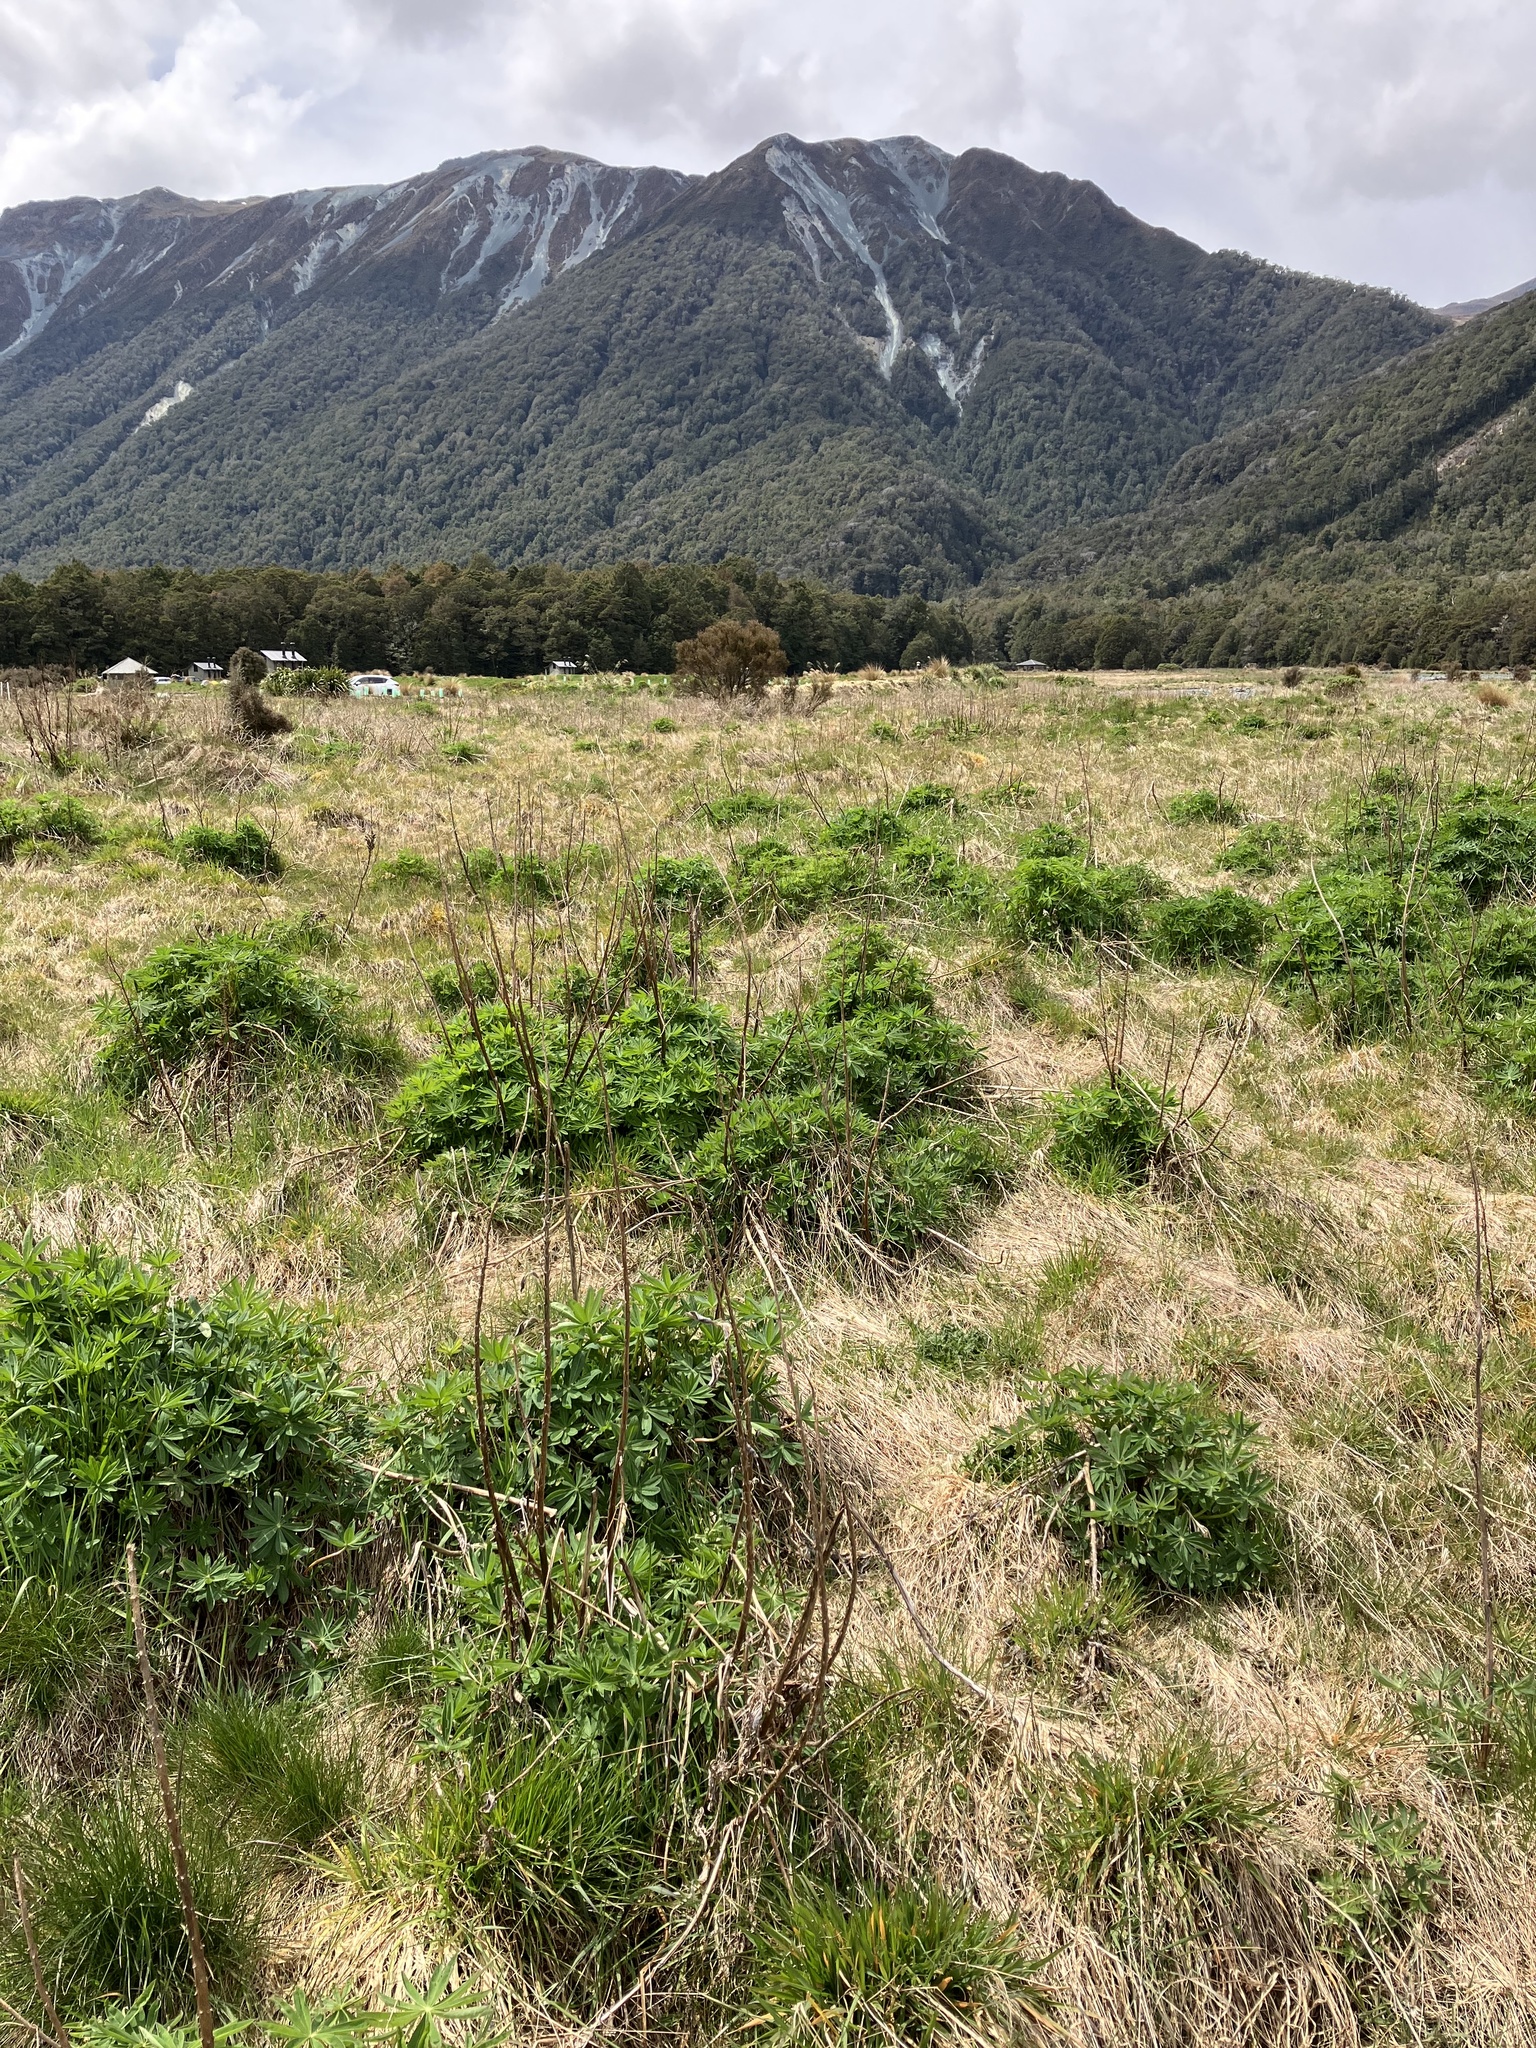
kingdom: Plantae
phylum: Tracheophyta
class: Magnoliopsida
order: Fabales
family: Fabaceae
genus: Lupinus
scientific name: Lupinus polyphyllus
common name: Garden lupin
